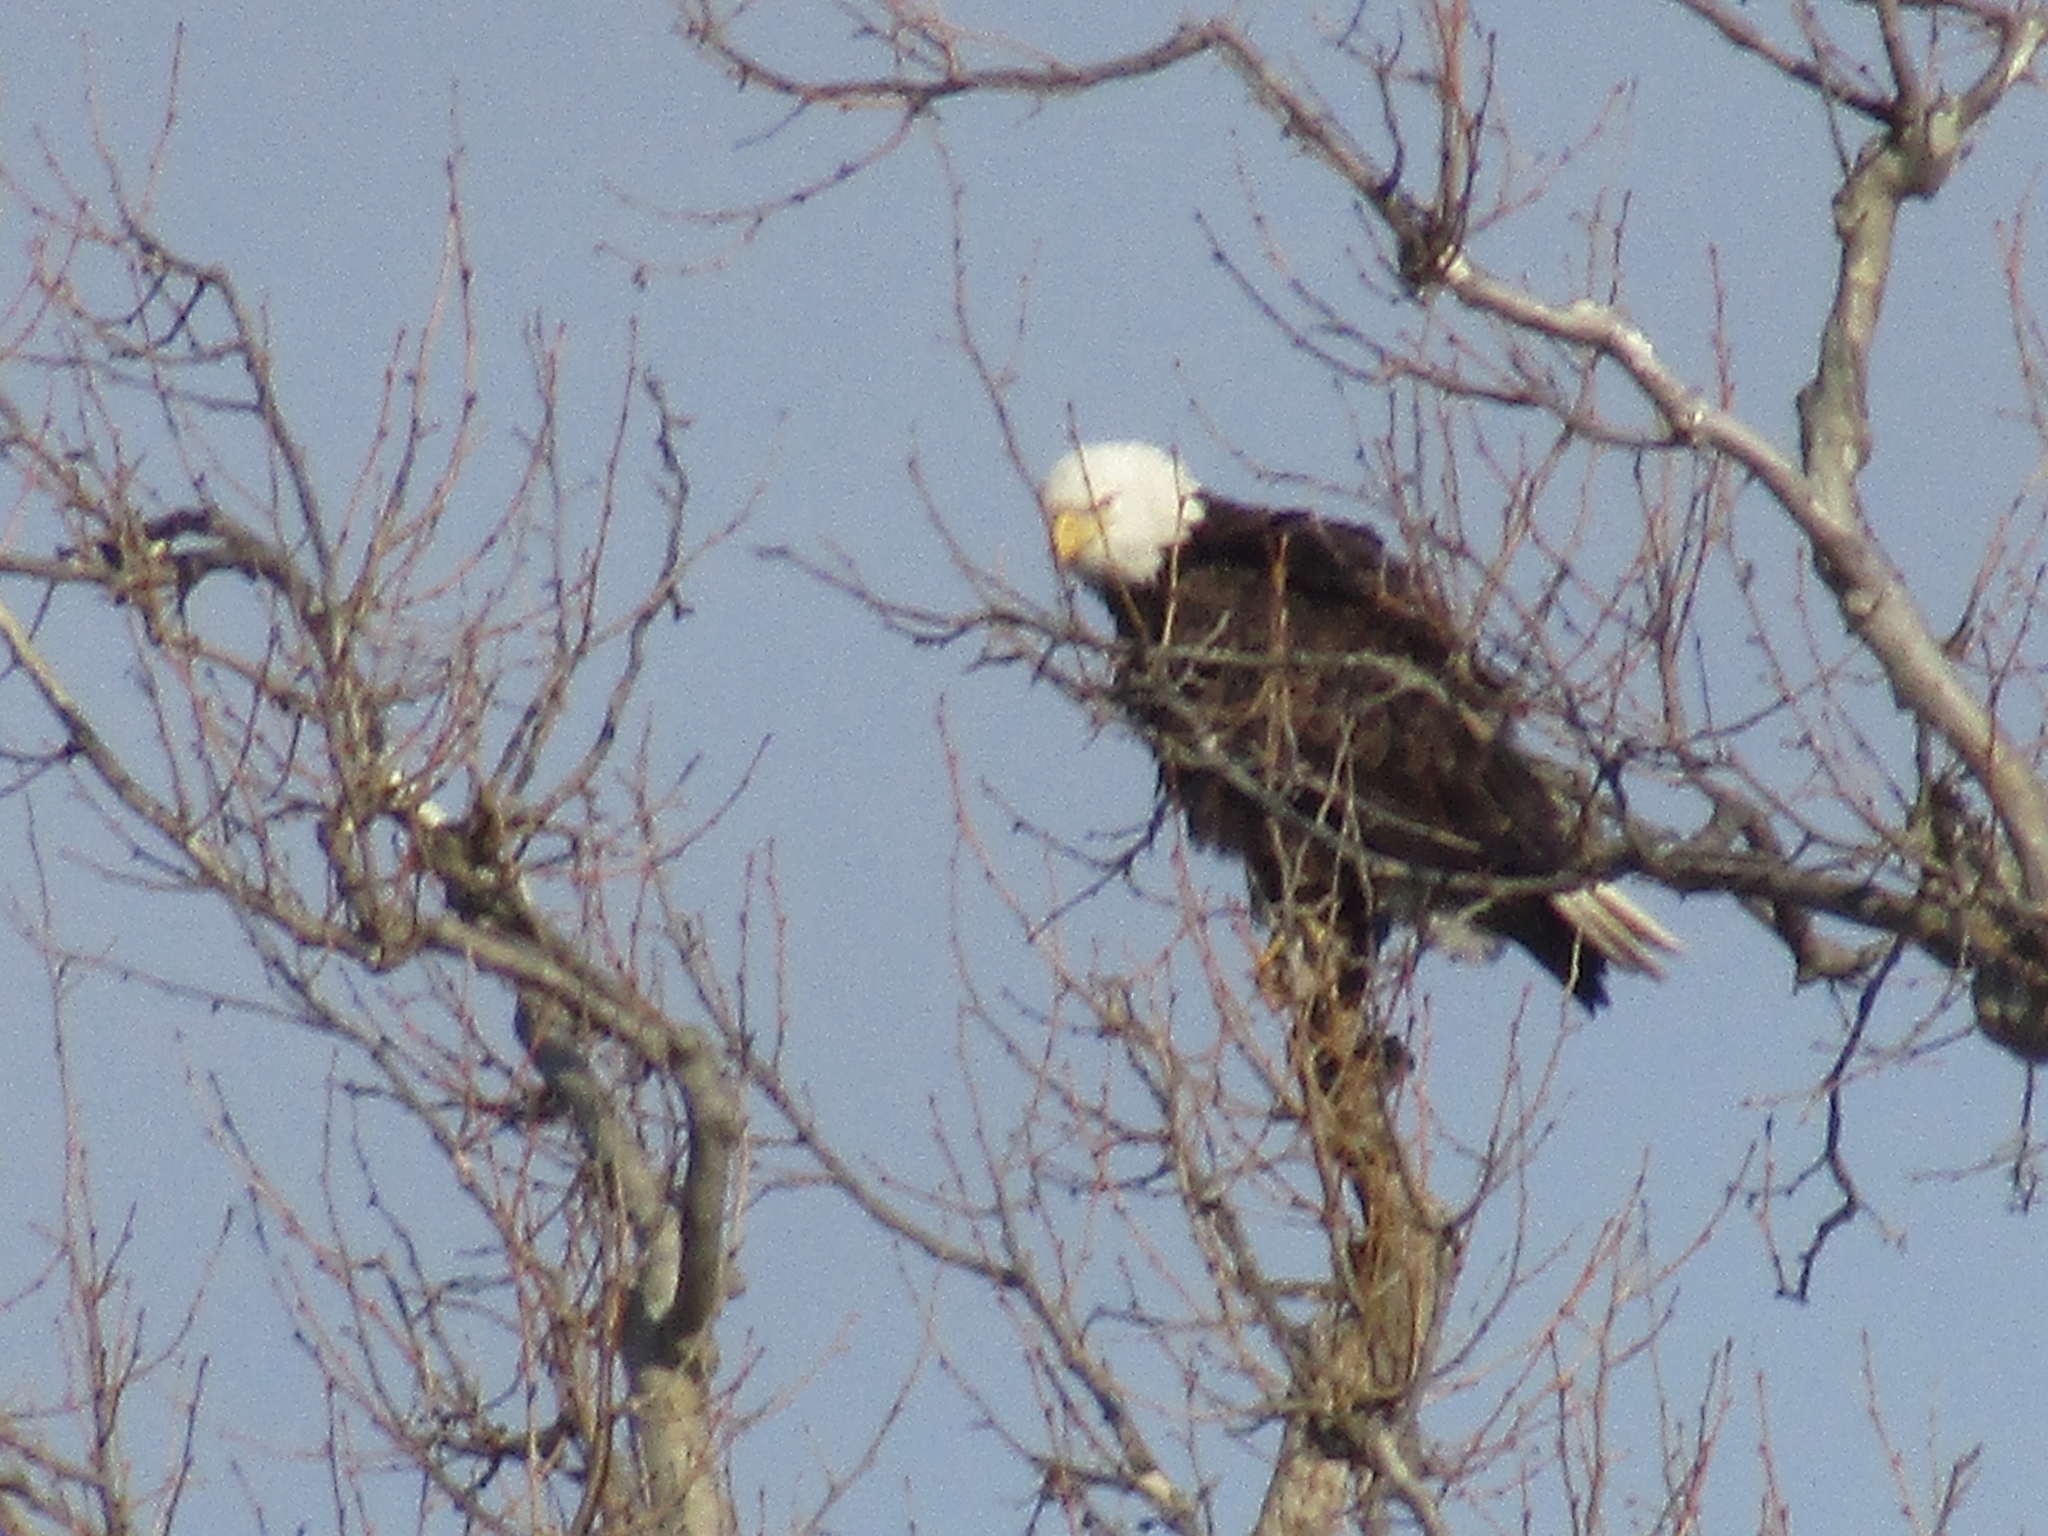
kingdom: Animalia
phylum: Chordata
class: Aves
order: Accipitriformes
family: Accipitridae
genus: Haliaeetus
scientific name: Haliaeetus leucocephalus
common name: Bald eagle
